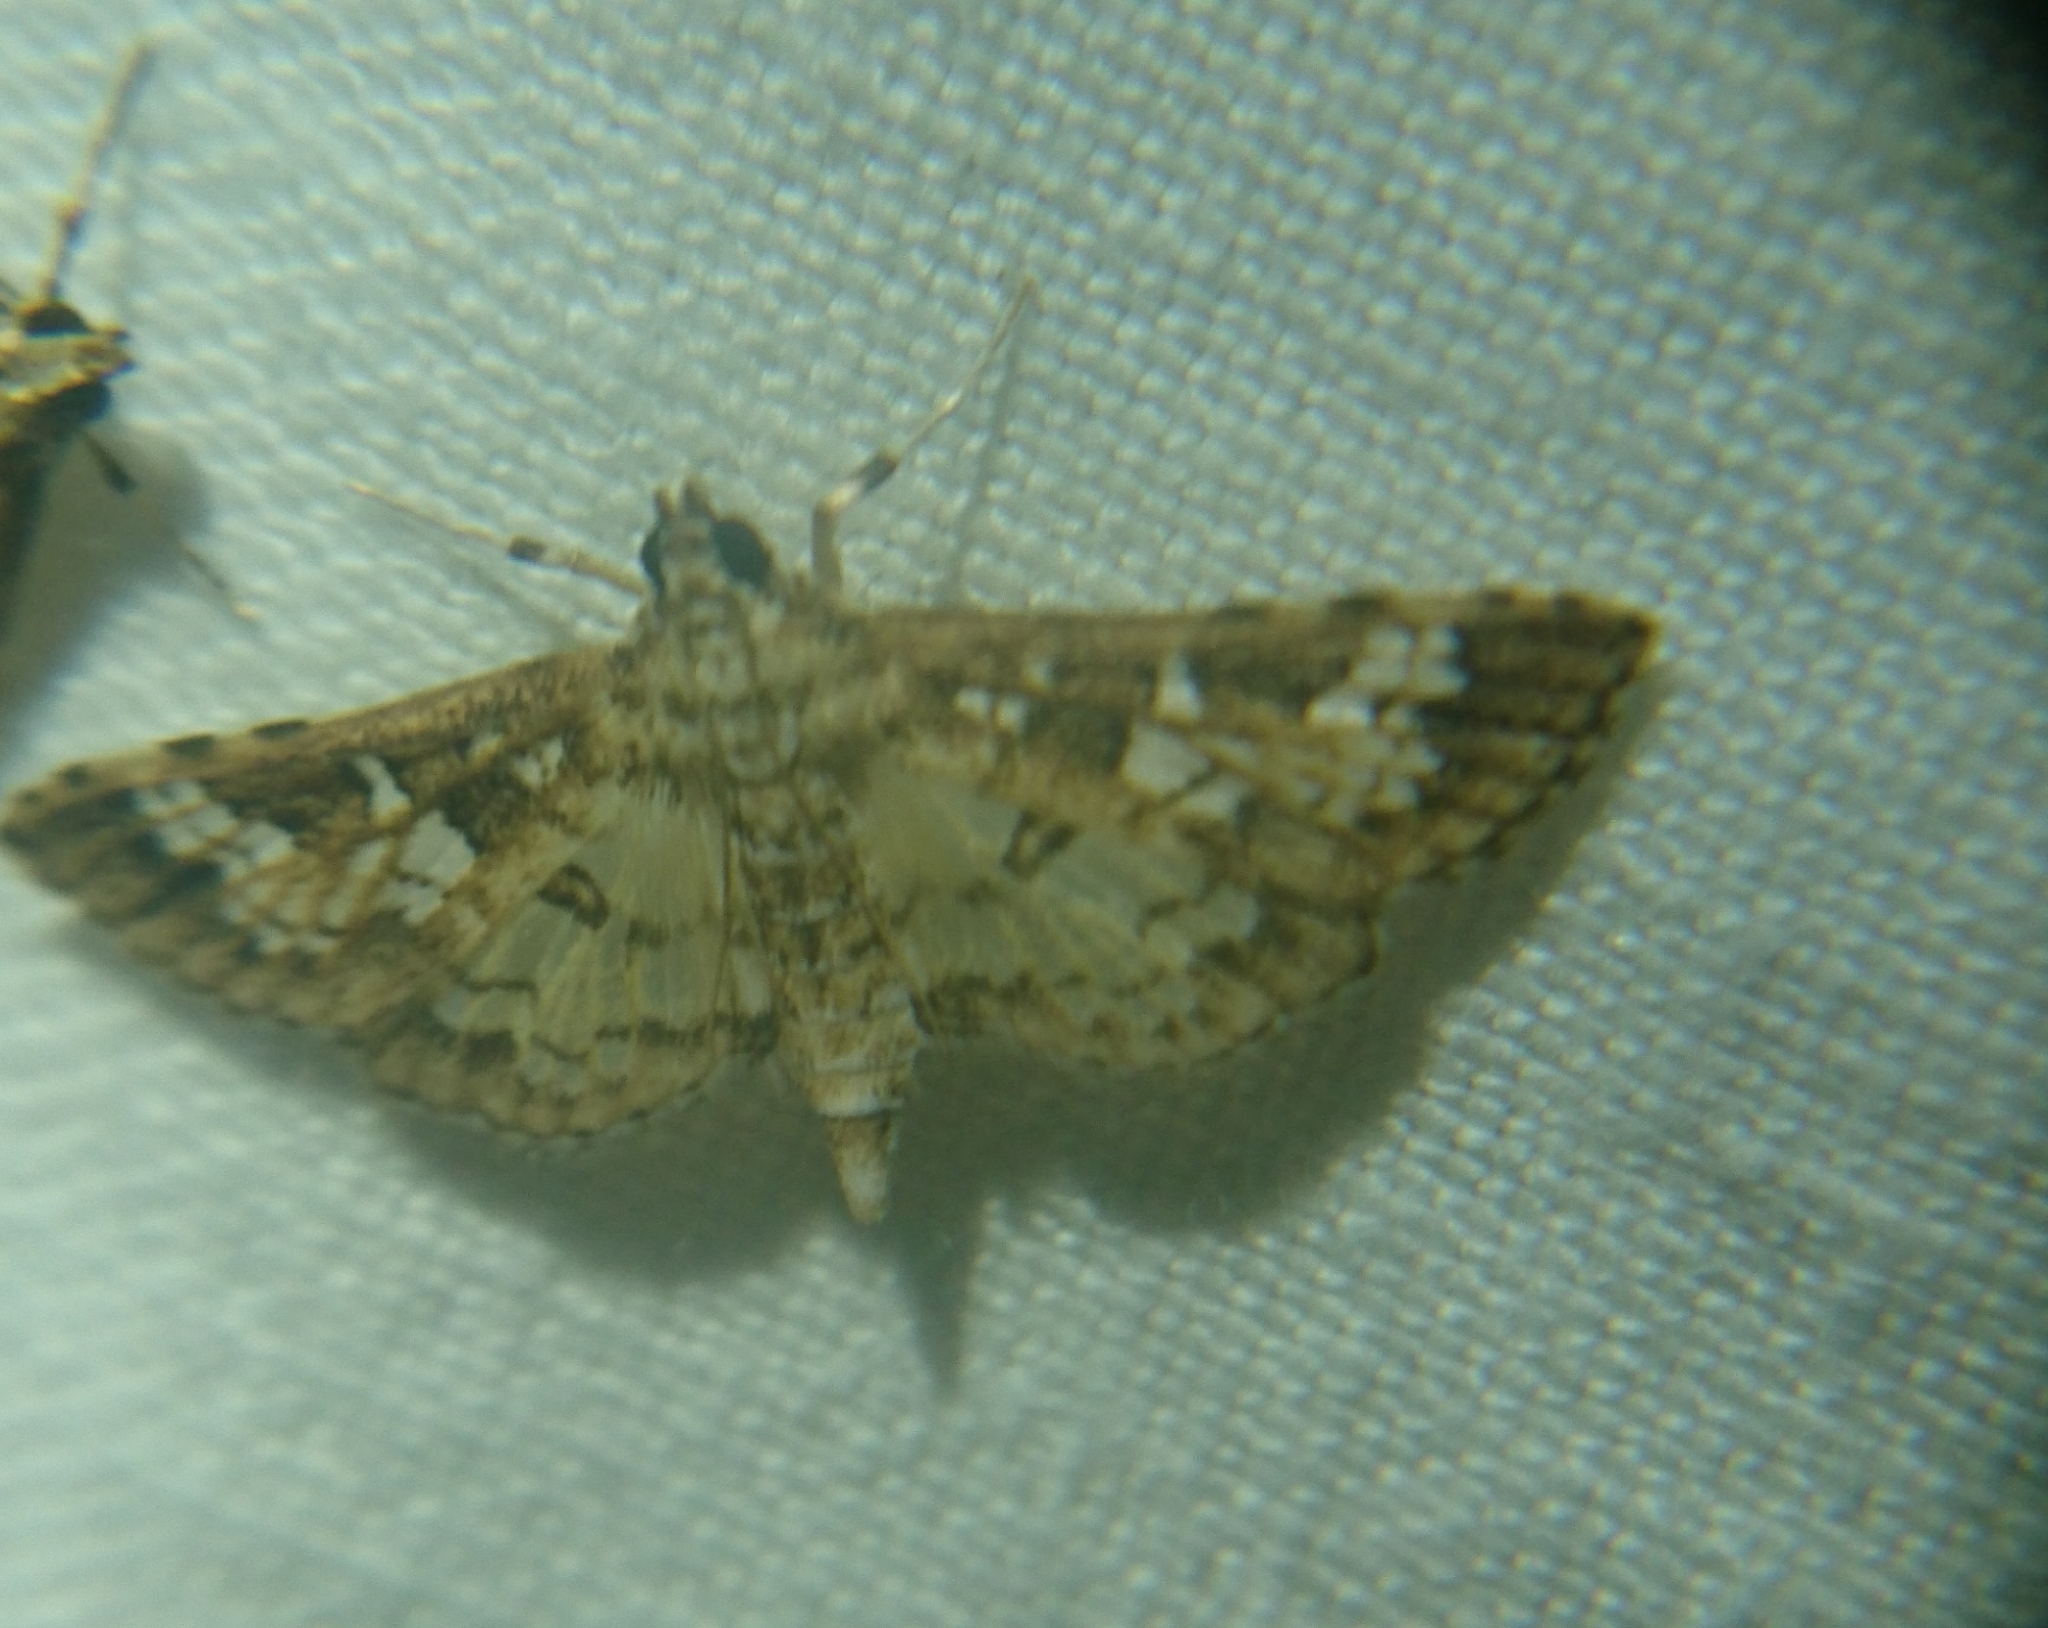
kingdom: Animalia
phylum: Arthropoda
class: Insecta
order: Lepidoptera
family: Crambidae
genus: Samea
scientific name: Samea multiplicalis
